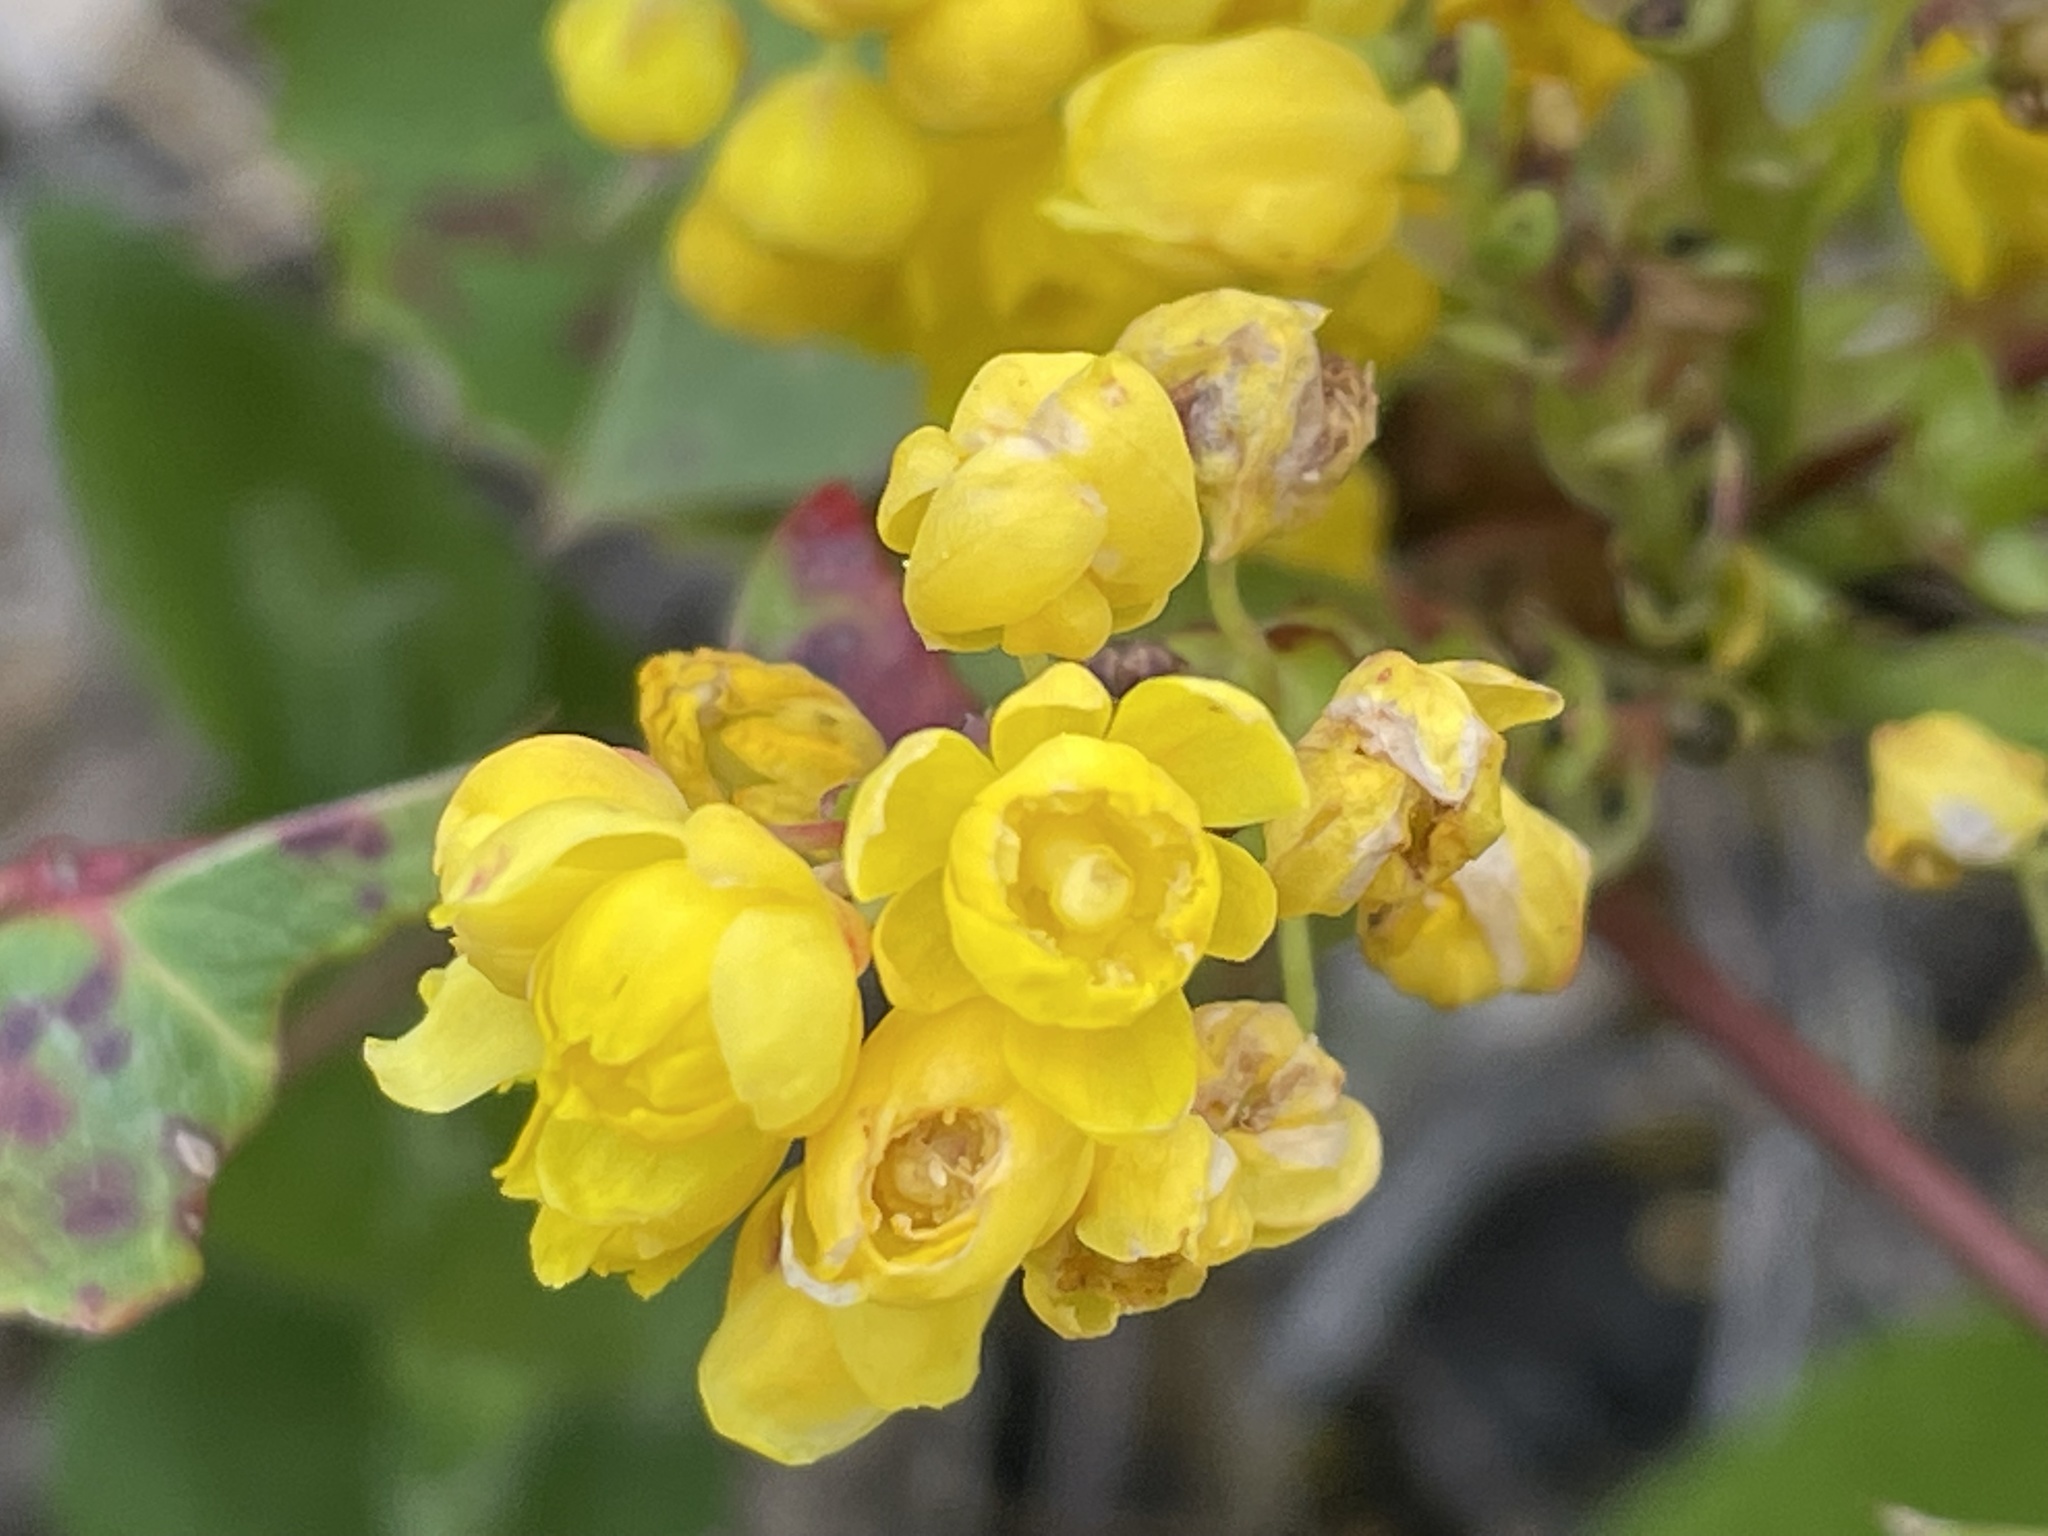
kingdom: Plantae
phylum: Tracheophyta
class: Magnoliopsida
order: Ranunculales
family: Berberidaceae
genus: Mahonia
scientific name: Mahonia repens
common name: Creeping oregon-grape
